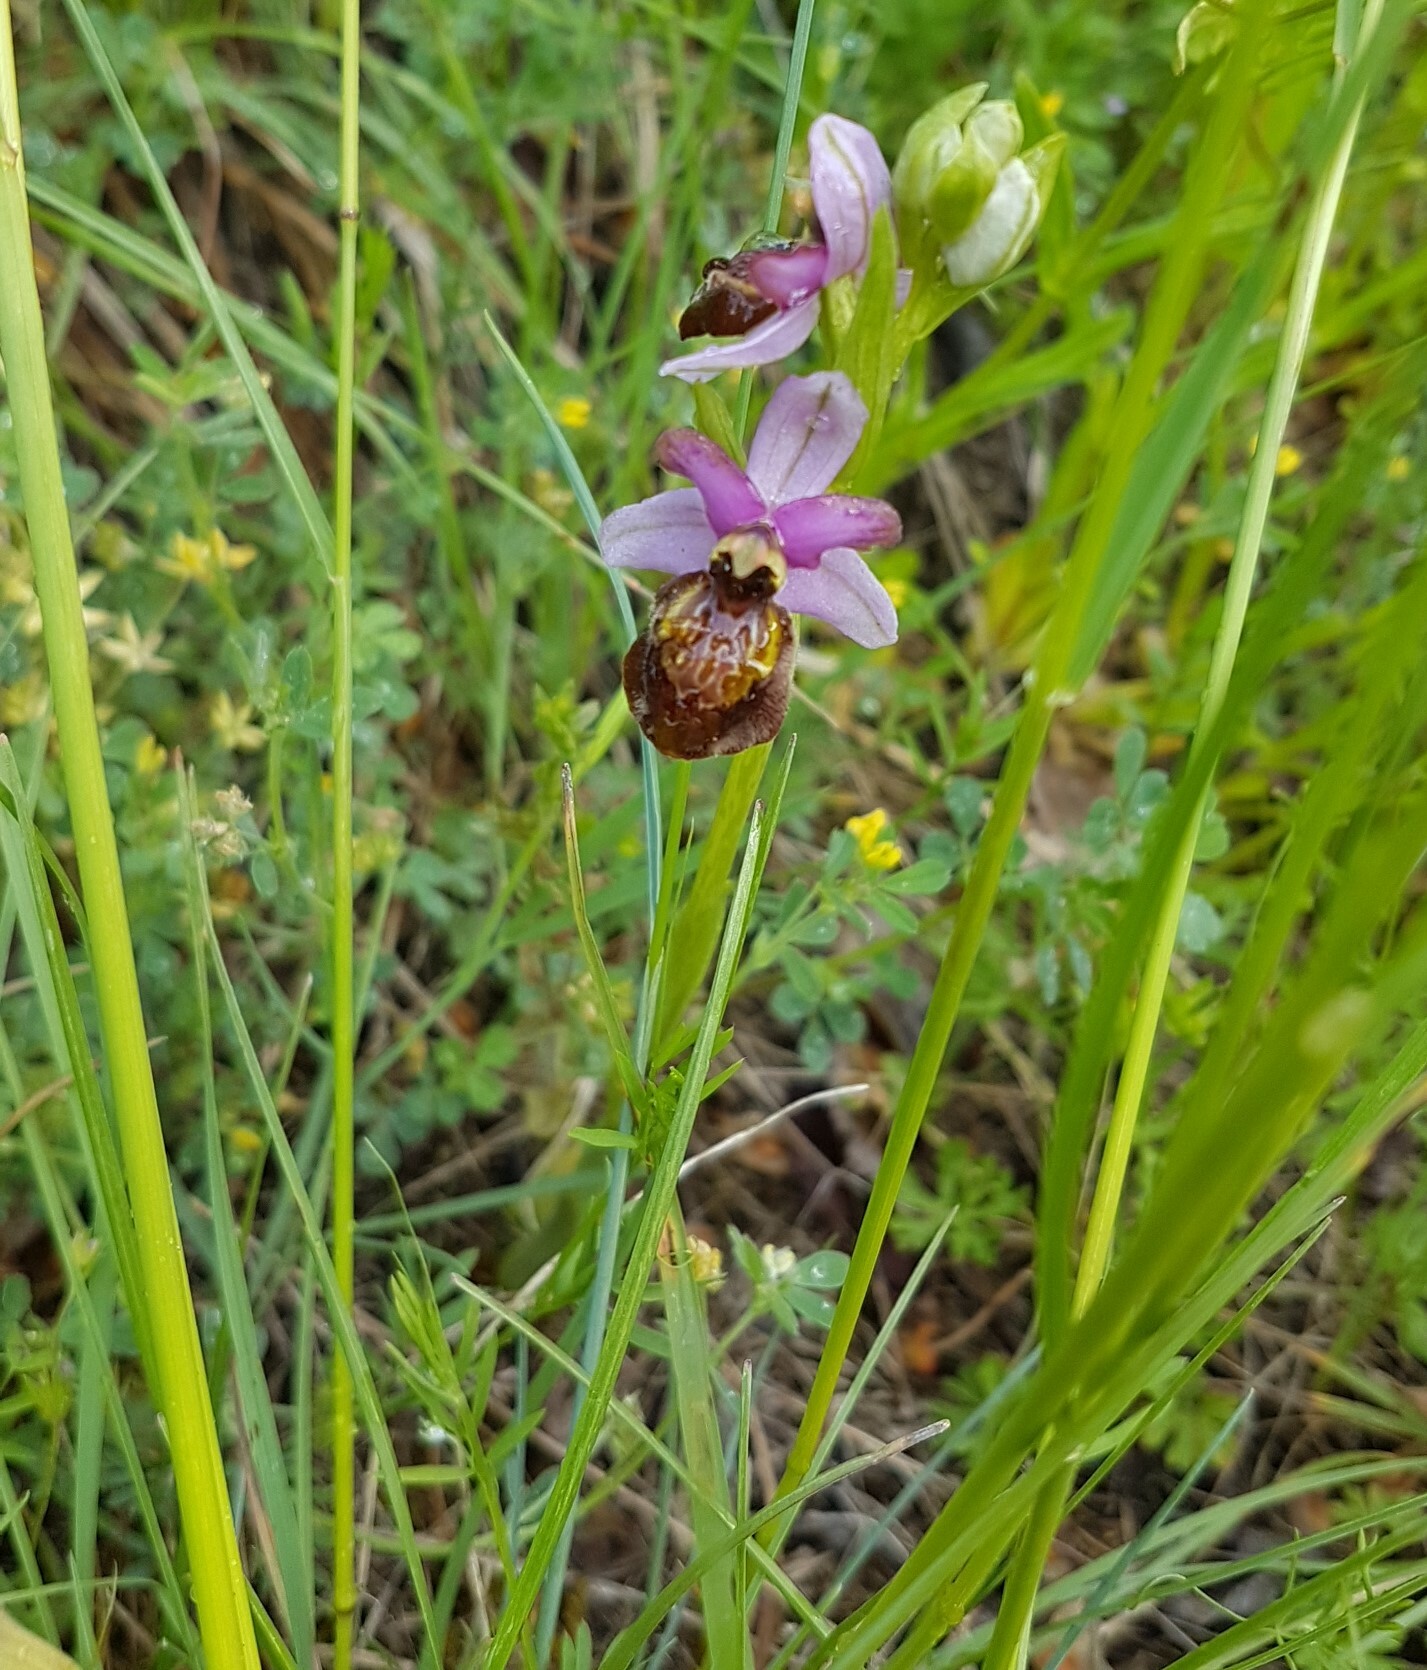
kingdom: Plantae
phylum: Tracheophyta
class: Liliopsida
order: Asparagales
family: Orchidaceae
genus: Ophrys
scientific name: Ophrys sphegodes
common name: Early spider-orchid
